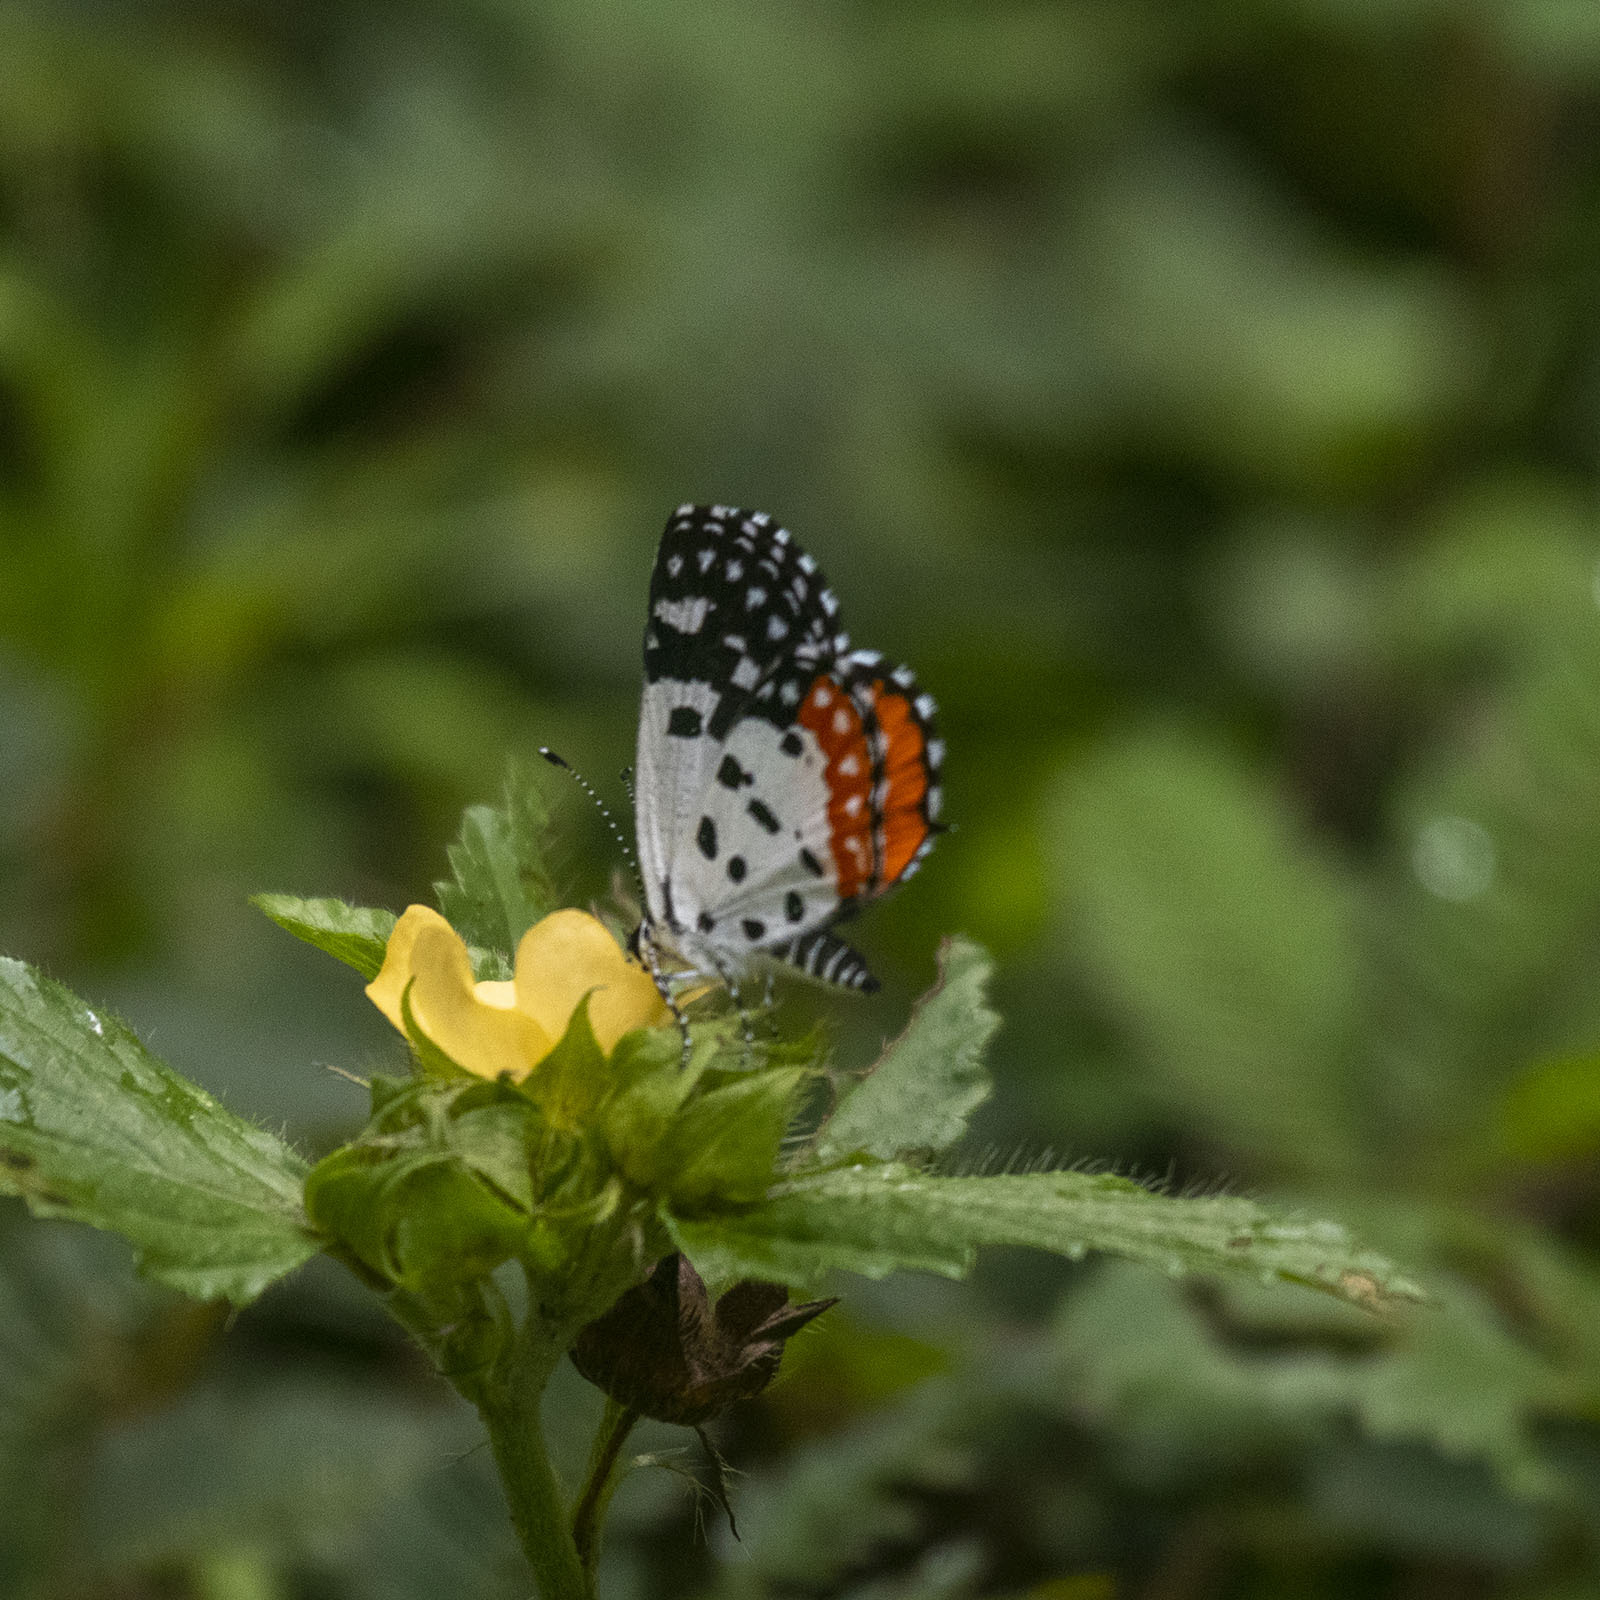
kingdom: Animalia
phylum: Arthropoda
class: Insecta
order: Lepidoptera
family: Lycaenidae
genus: Talicada
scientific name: Talicada nyseus
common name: Red pierrot
